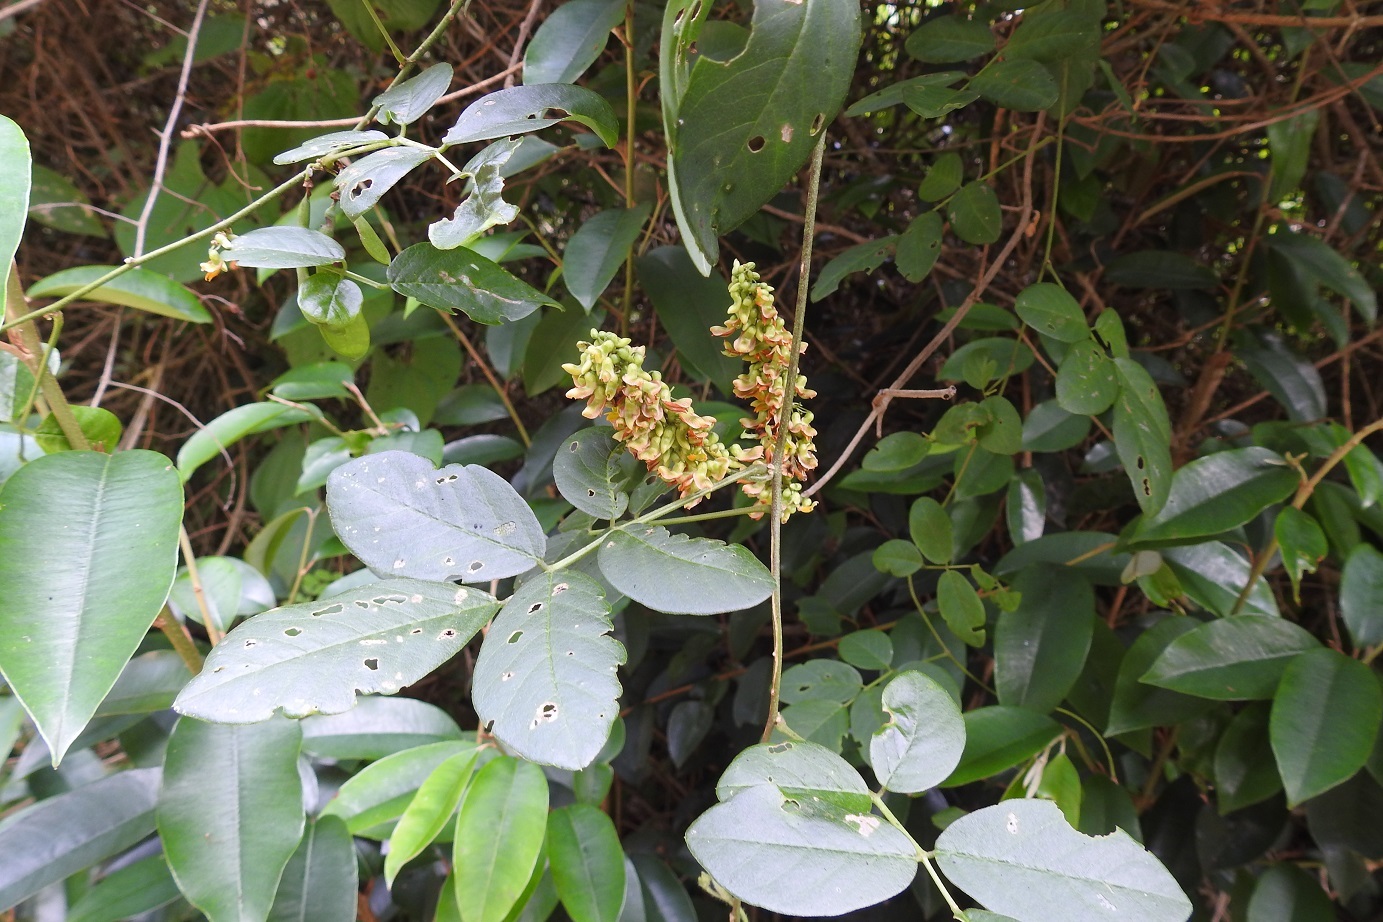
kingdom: Plantae
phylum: Tracheophyta
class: Magnoliopsida
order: Fabales
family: Fabaceae
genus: Nissolia
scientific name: Nissolia fruticosa
